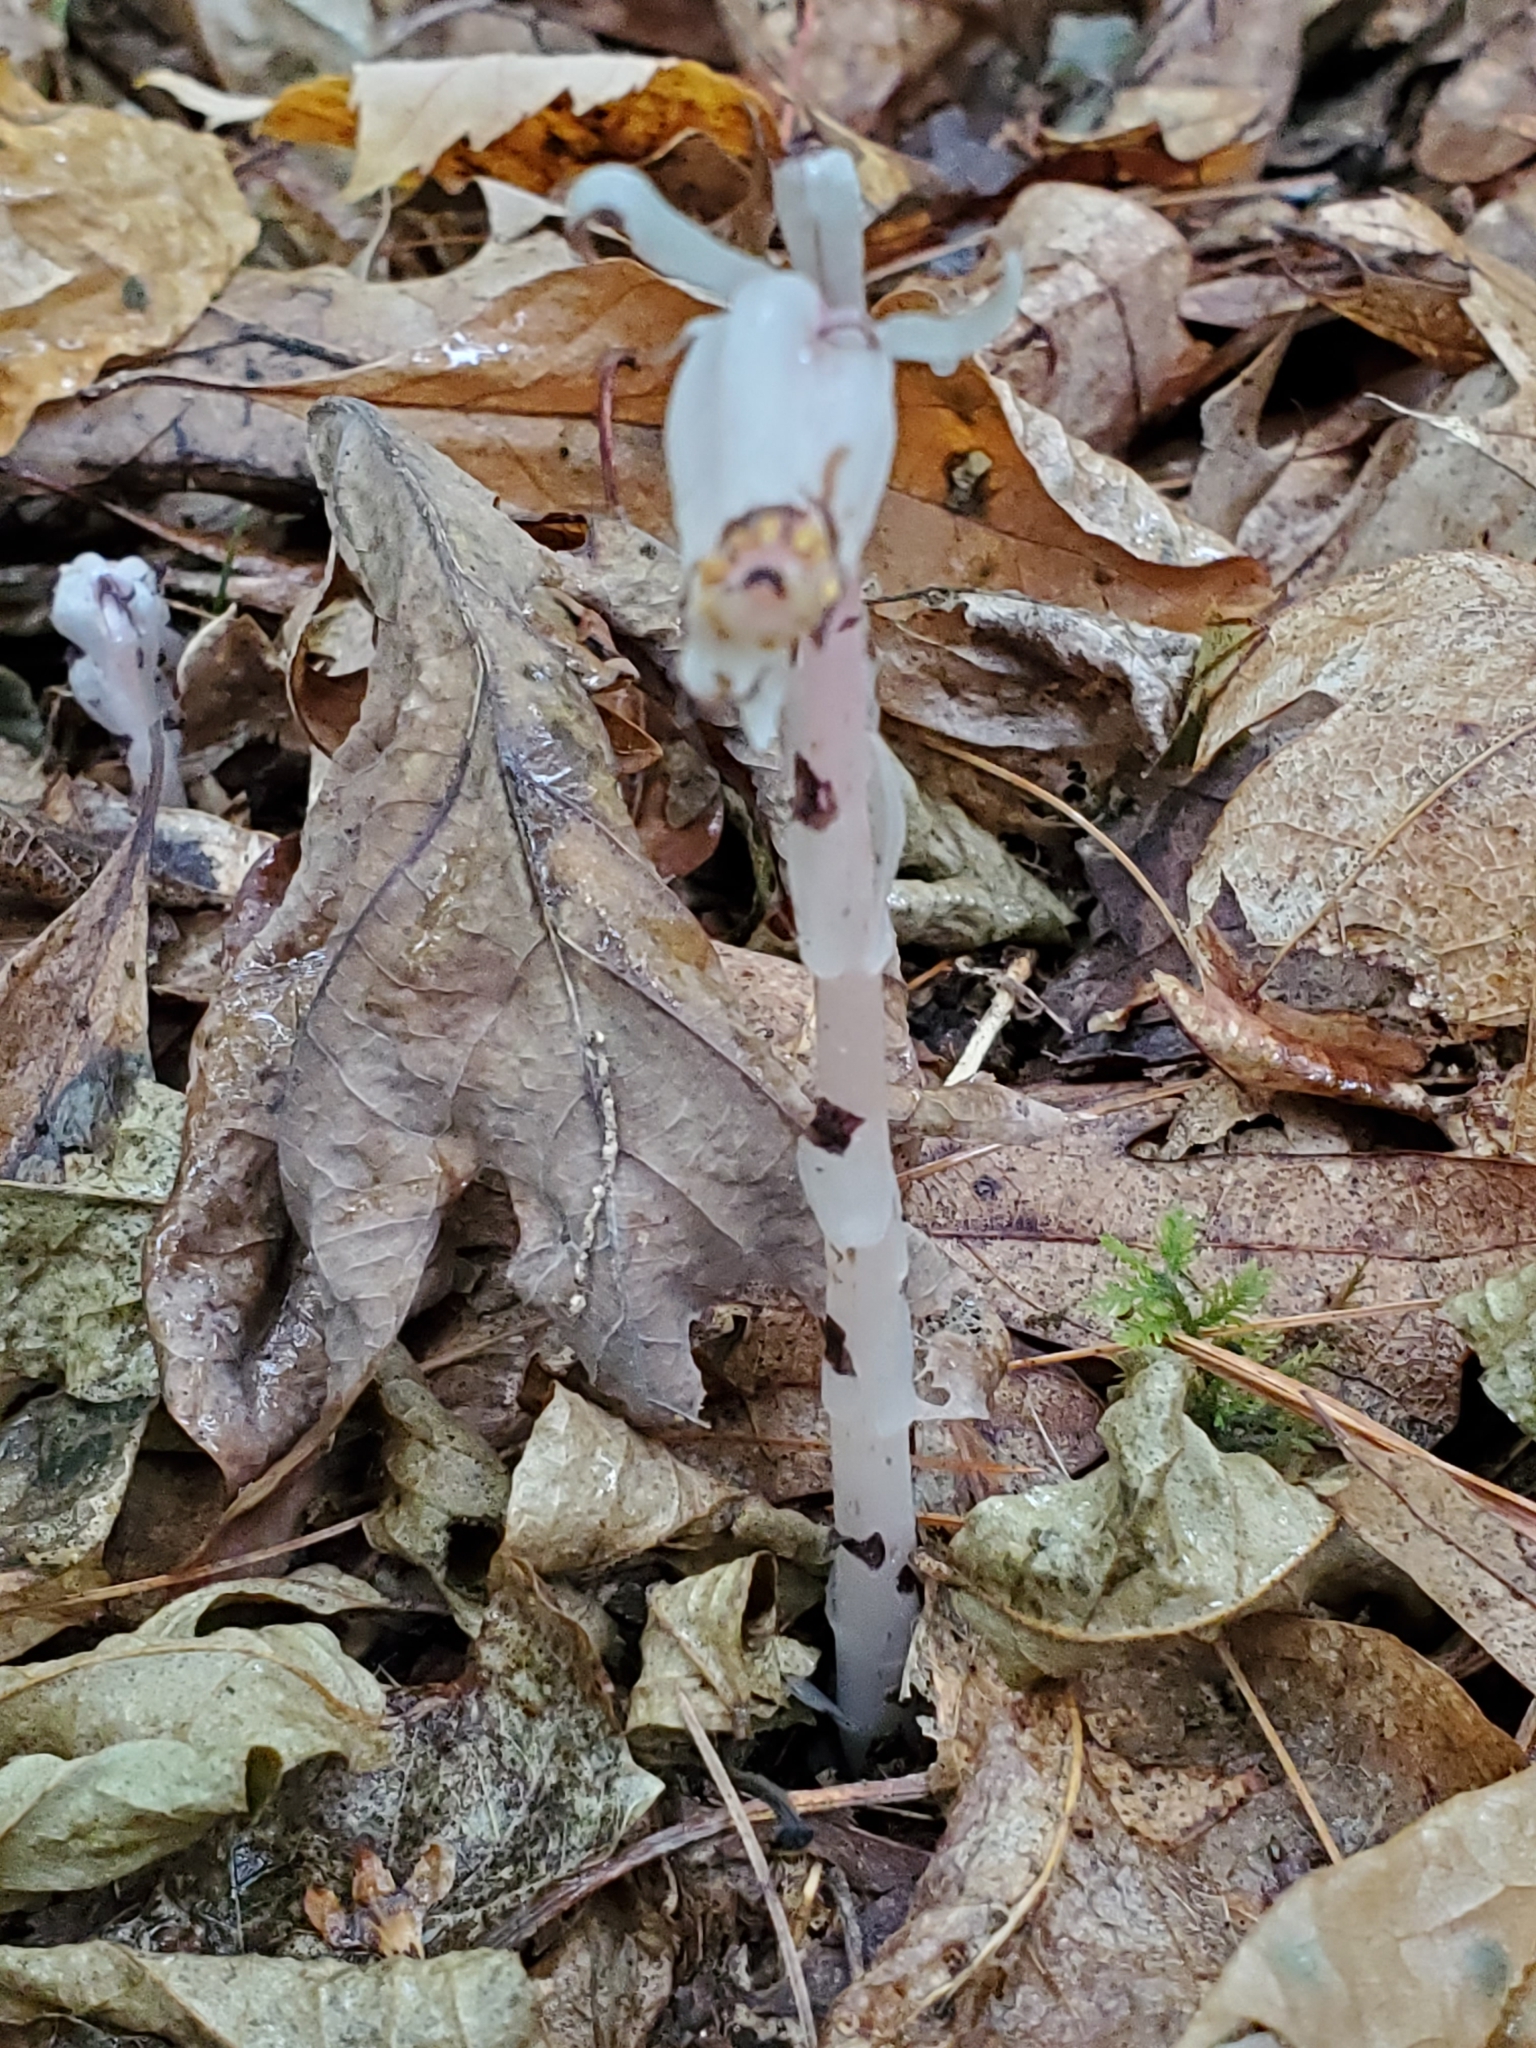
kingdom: Plantae
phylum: Tracheophyta
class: Magnoliopsida
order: Ericales
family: Ericaceae
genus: Monotropa
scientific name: Monotropa uniflora
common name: Convulsion root
